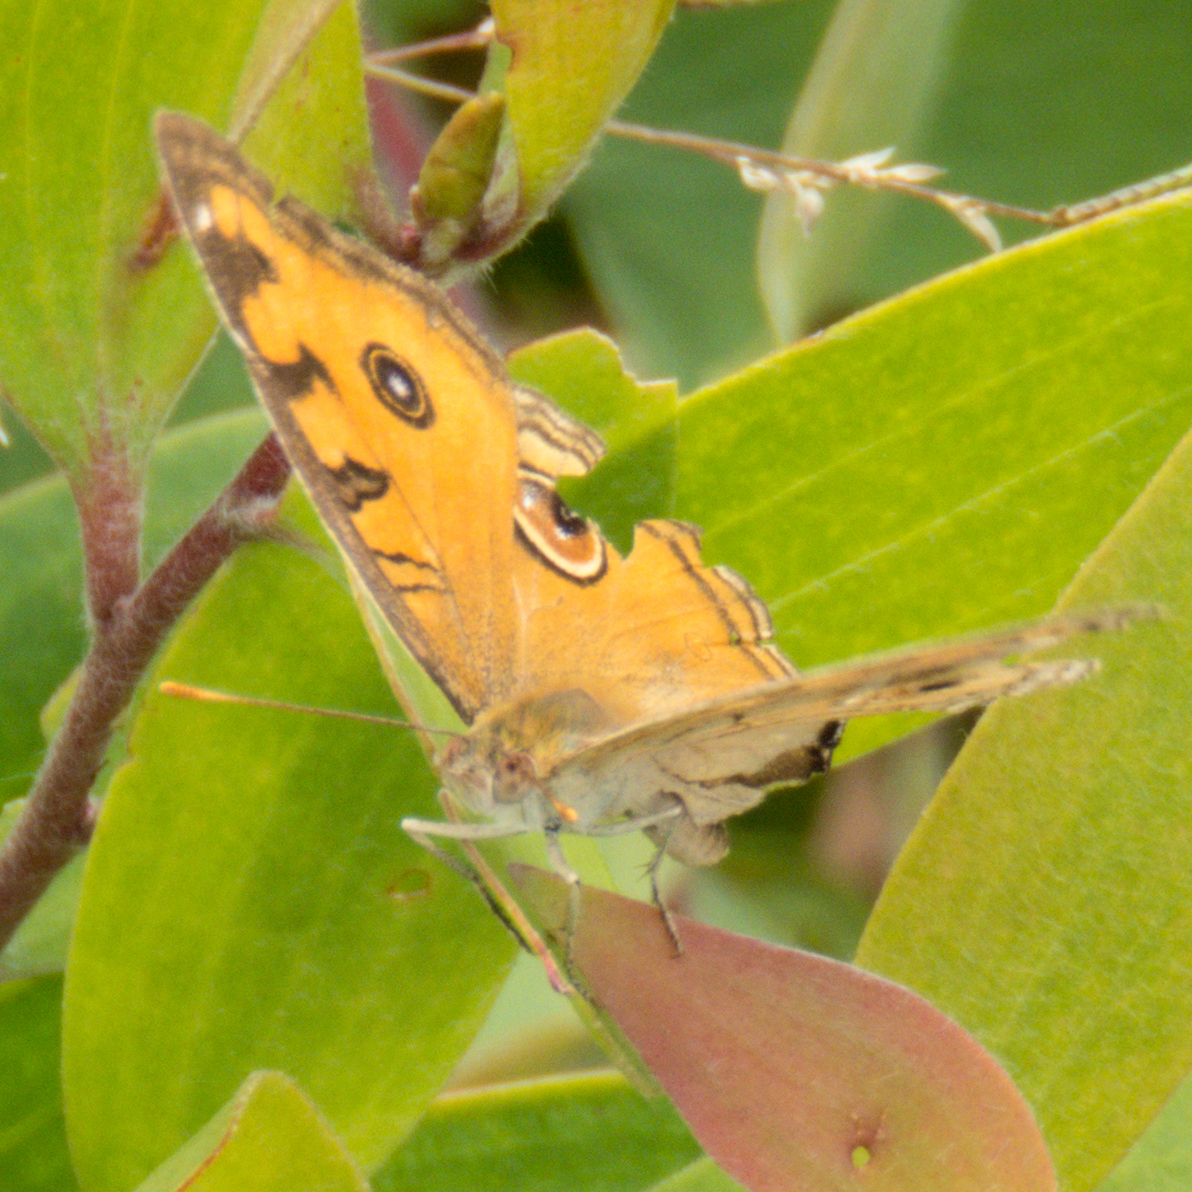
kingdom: Animalia
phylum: Arthropoda
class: Insecta
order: Lepidoptera
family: Nymphalidae
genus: Junonia
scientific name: Junonia almana
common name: Peacock pansy
